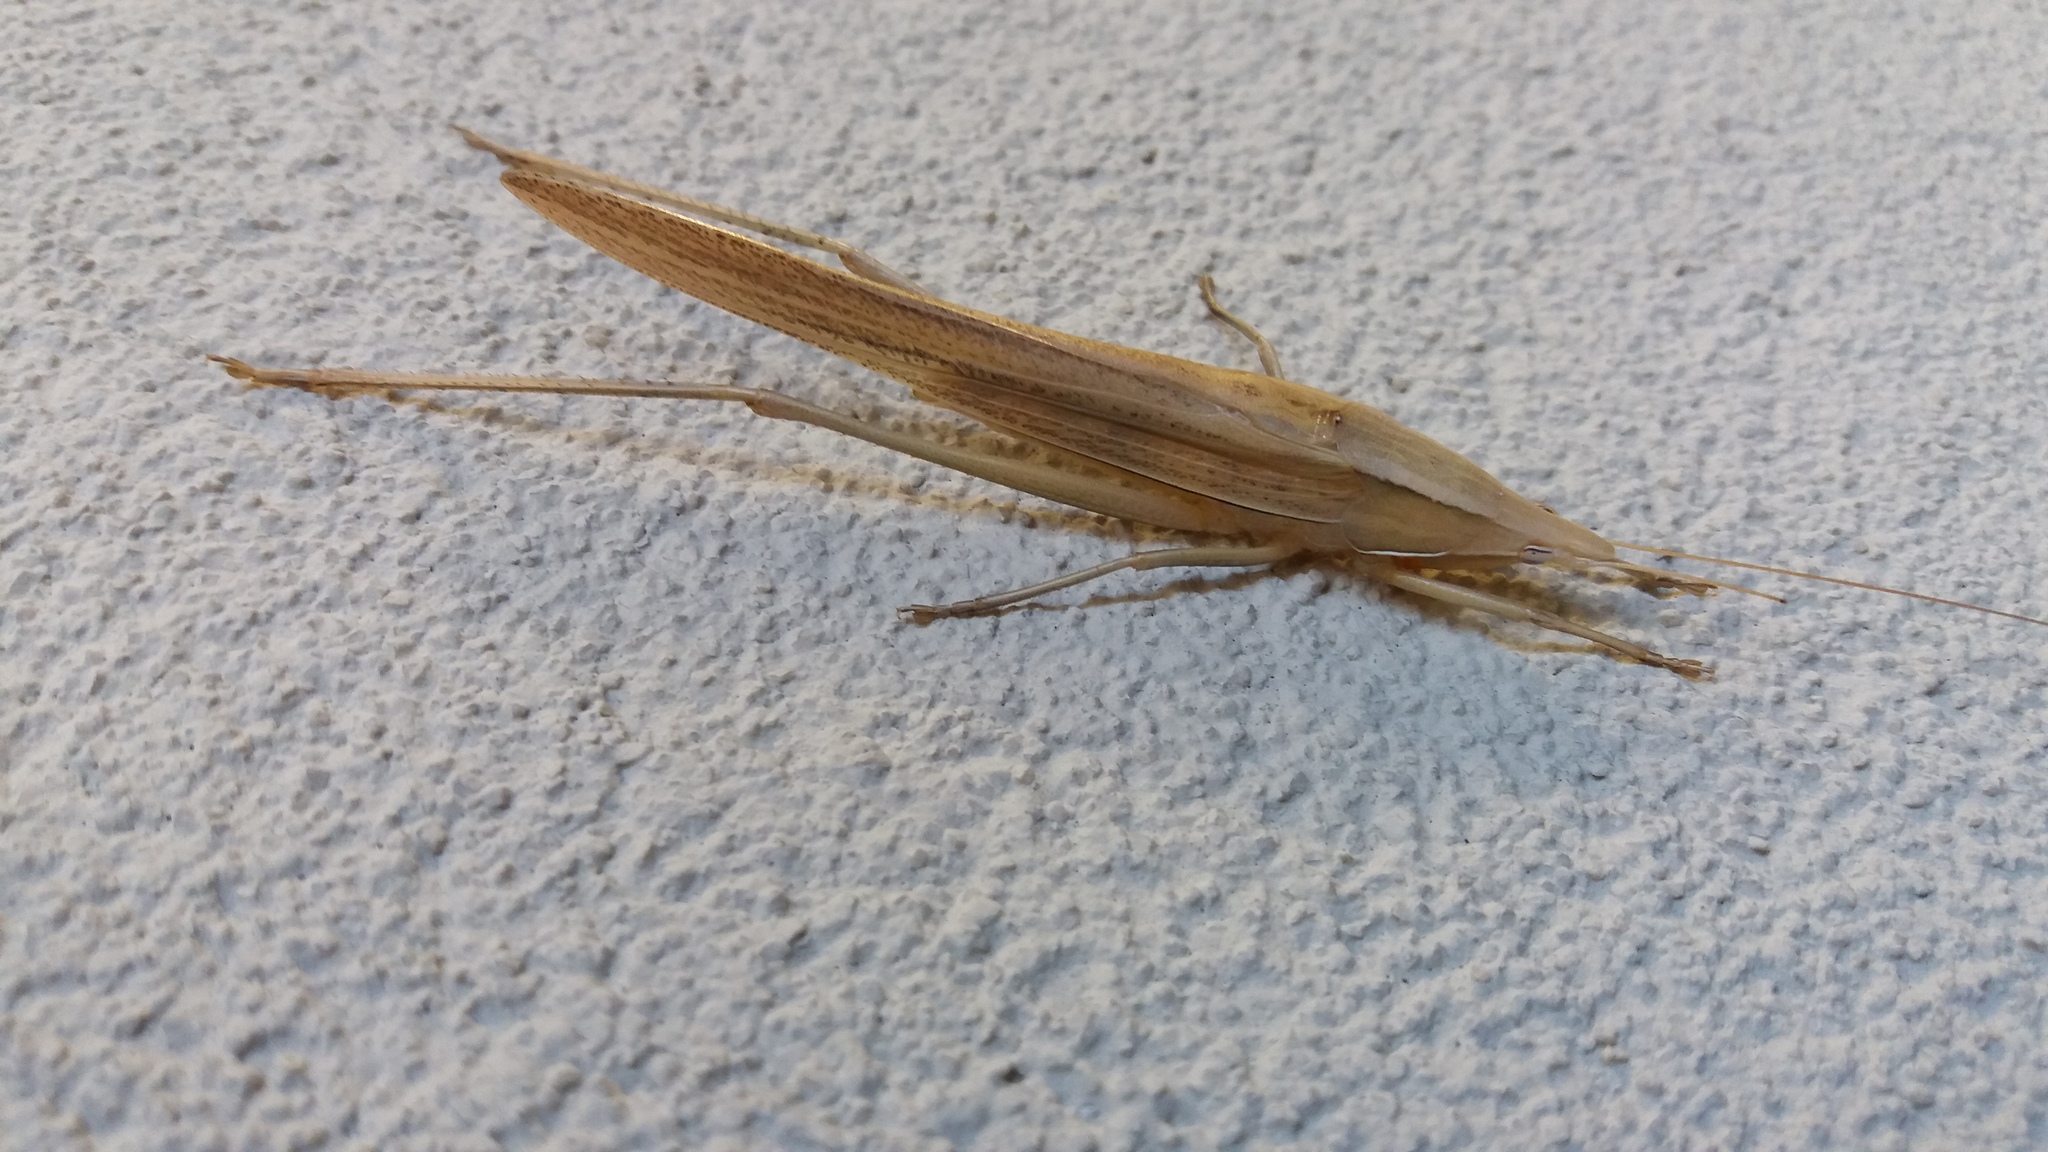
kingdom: Animalia
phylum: Arthropoda
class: Insecta
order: Orthoptera
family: Tettigoniidae
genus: Euconocephalus
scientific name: Euconocephalus nasutus
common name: Grasshopper
